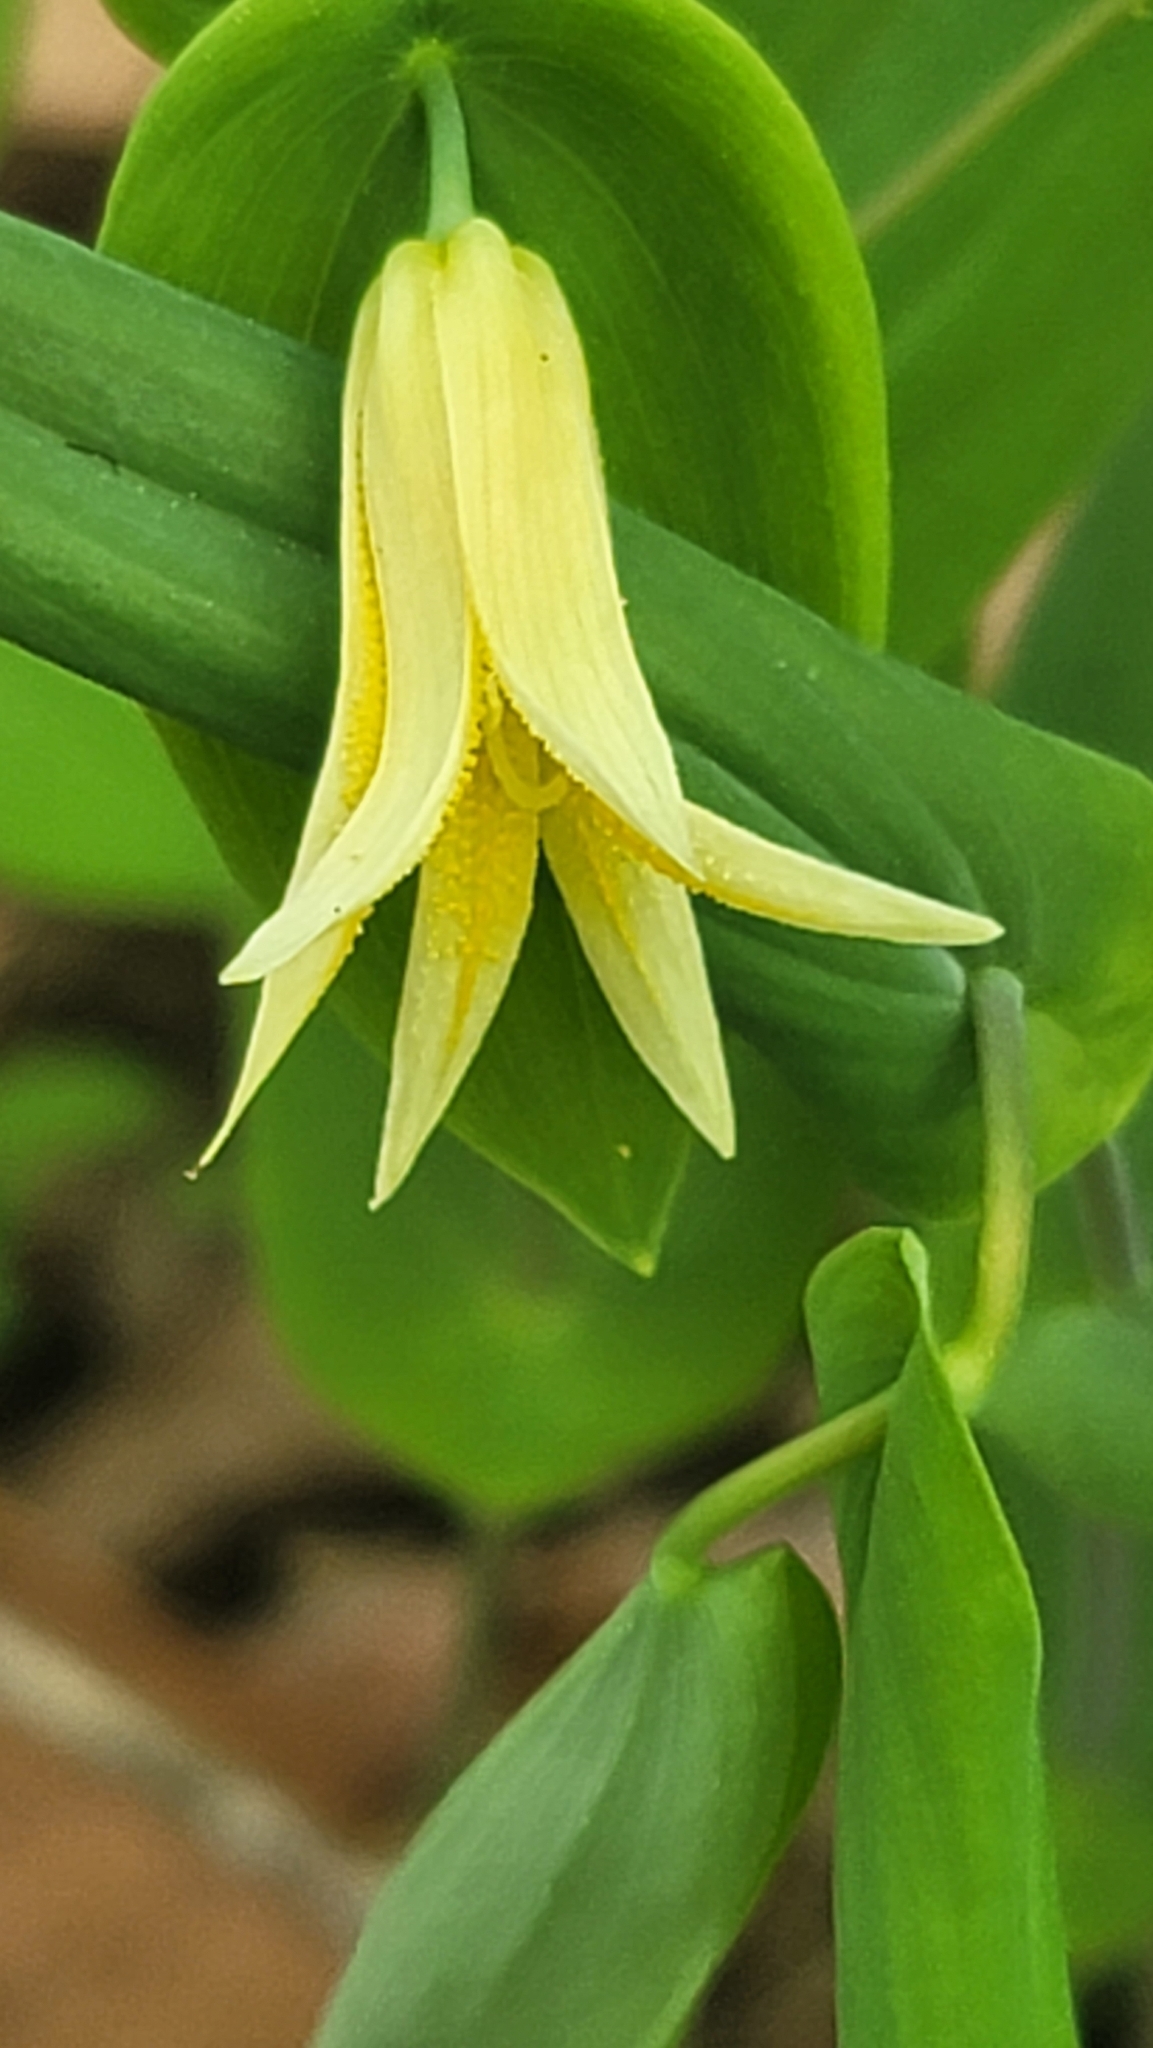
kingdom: Plantae
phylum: Tracheophyta
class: Liliopsida
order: Liliales
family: Colchicaceae
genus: Uvularia
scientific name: Uvularia perfoliata
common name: Perfoliate bellwort
